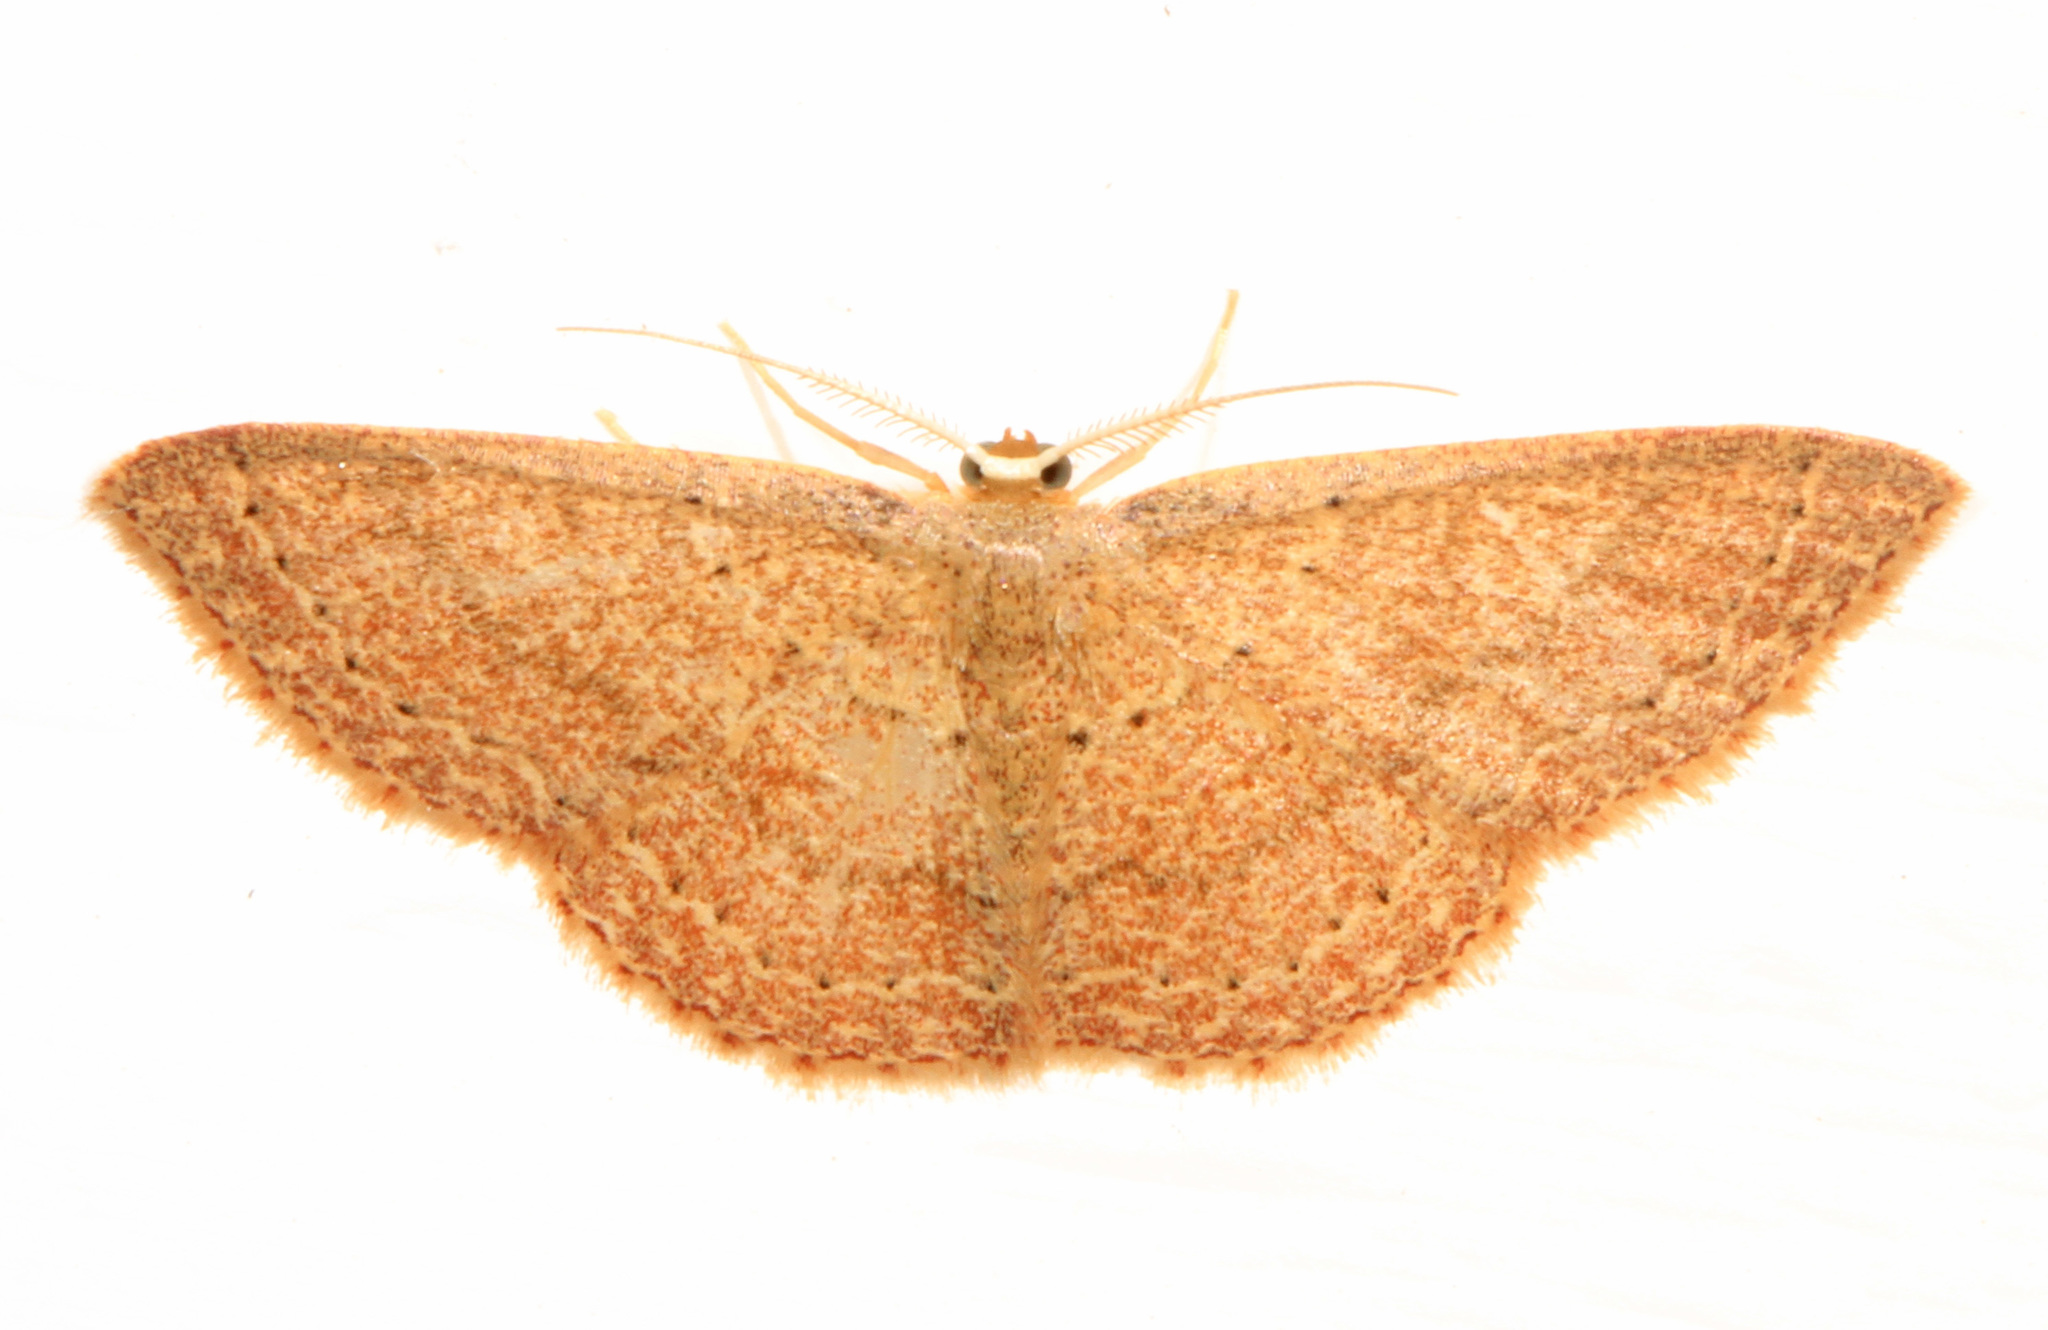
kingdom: Animalia
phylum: Arthropoda
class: Insecta
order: Lepidoptera
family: Geometridae
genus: Pleuroprucha
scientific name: Pleuroprucha insulsaria
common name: Common tan wave
